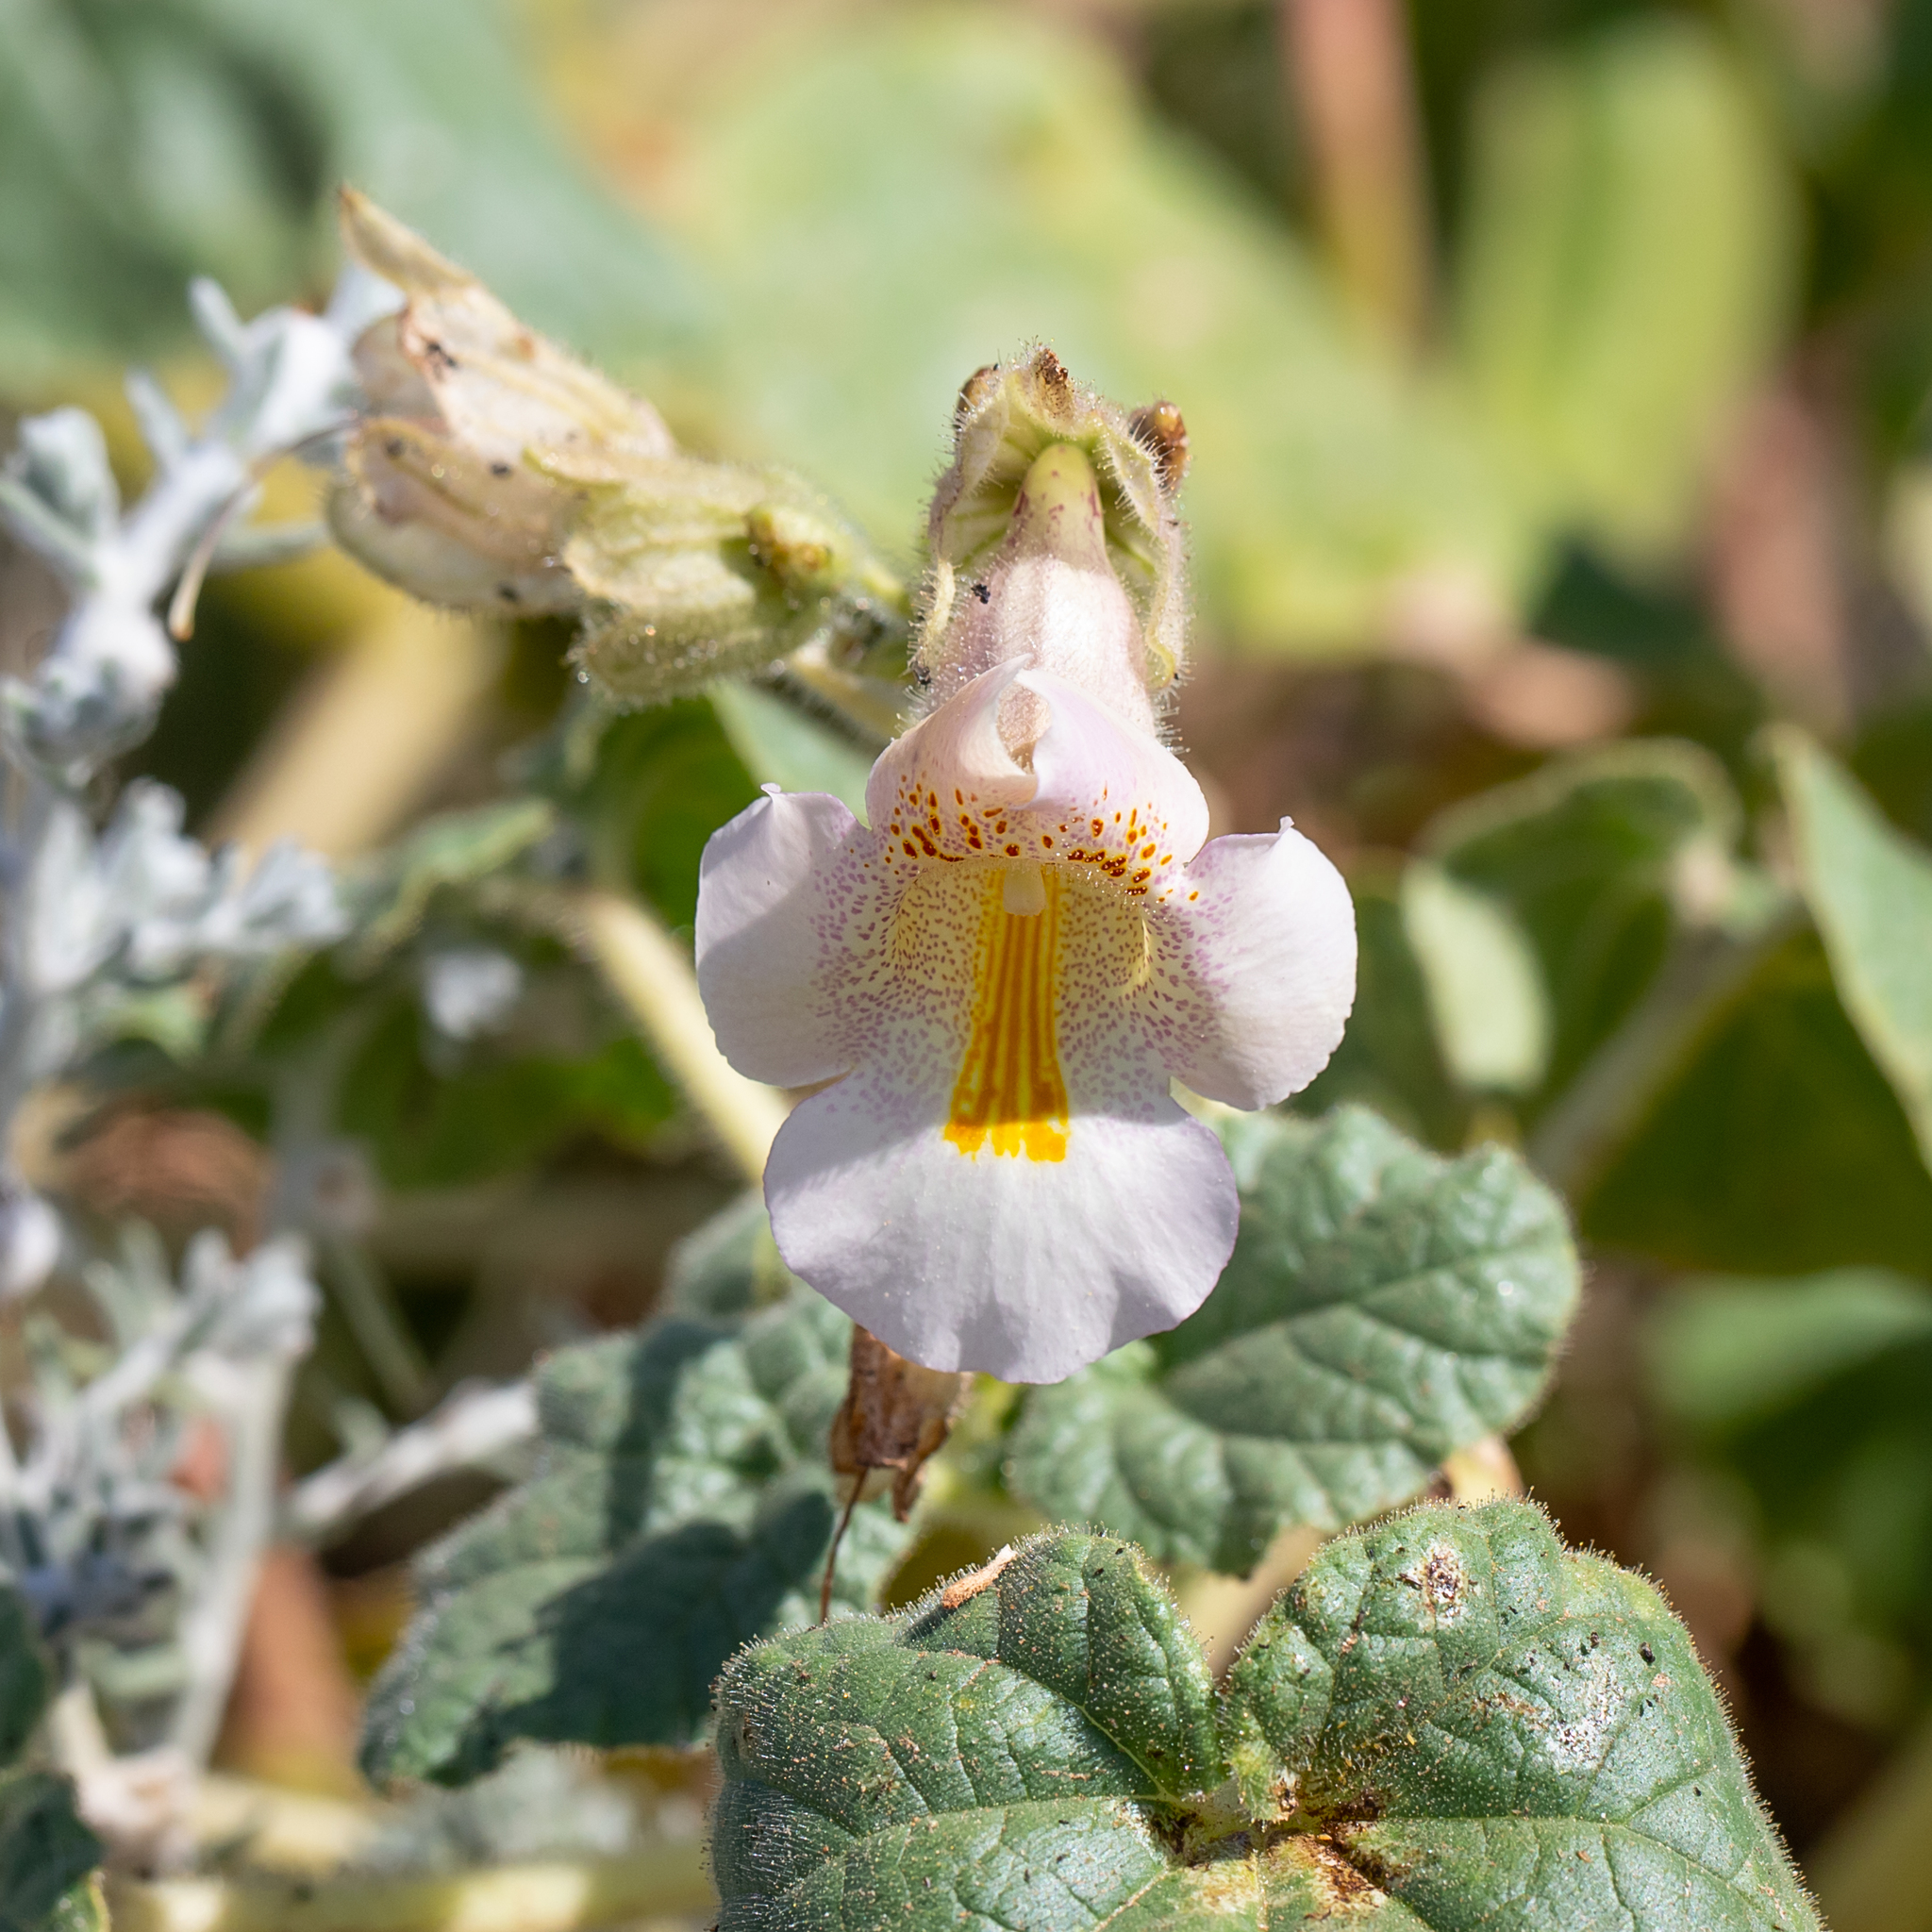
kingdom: Plantae
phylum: Tracheophyta
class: Magnoliopsida
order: Lamiales
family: Martyniaceae
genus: Proboscidea
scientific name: Proboscidea louisianica
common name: Elephant tusks
